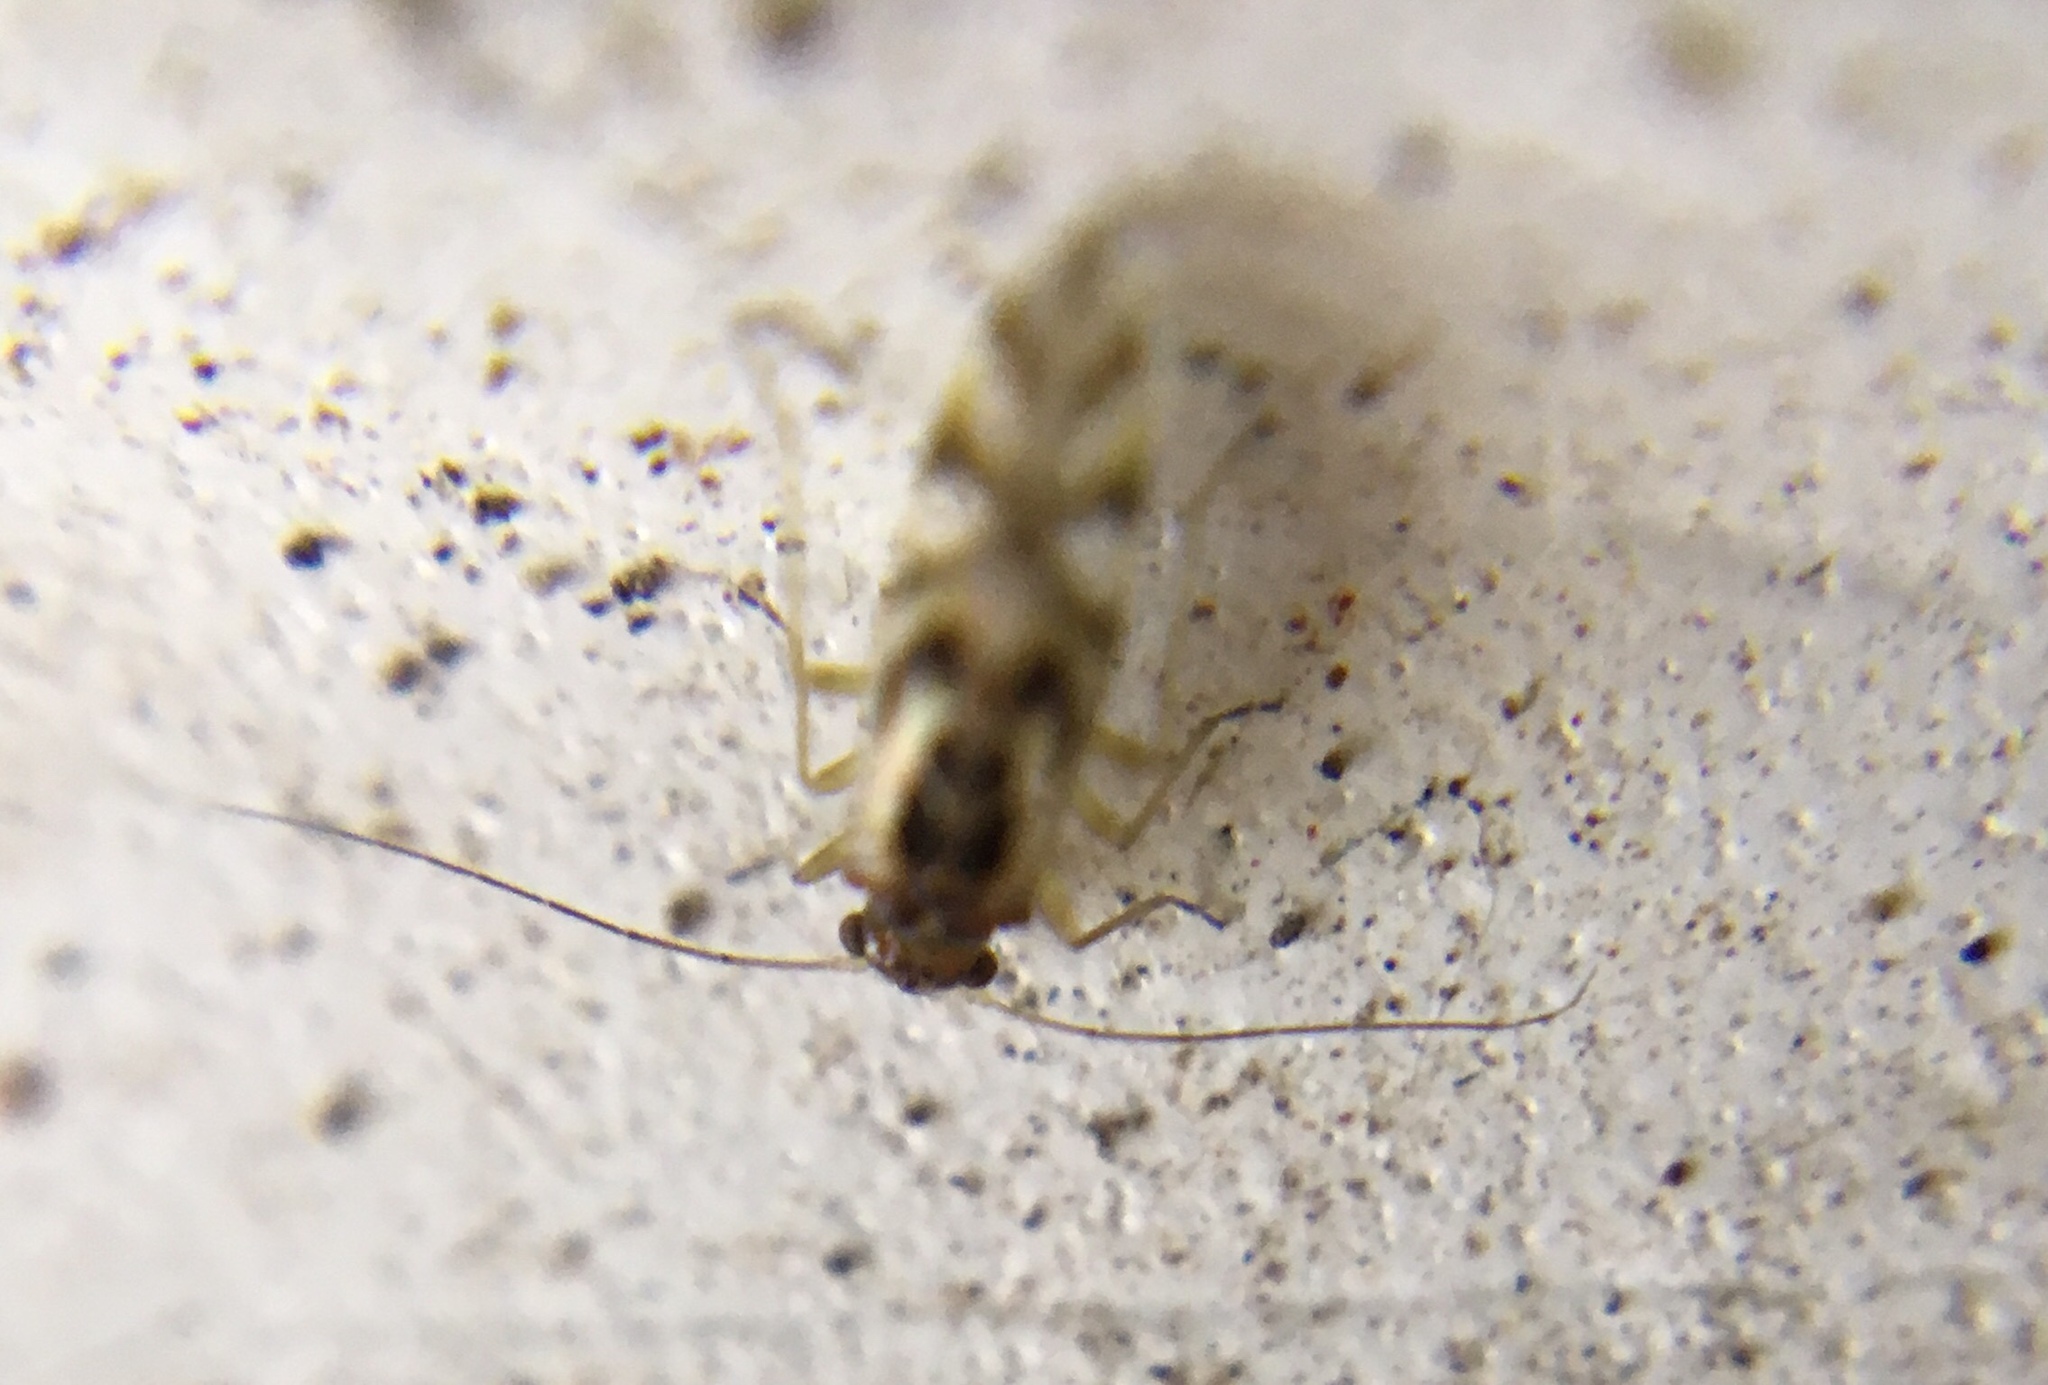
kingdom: Animalia
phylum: Arthropoda
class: Insecta
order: Psocodea
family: Stenopsocidae
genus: Graphopsocus
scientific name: Graphopsocus cruciatus
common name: Lizard bark louse
